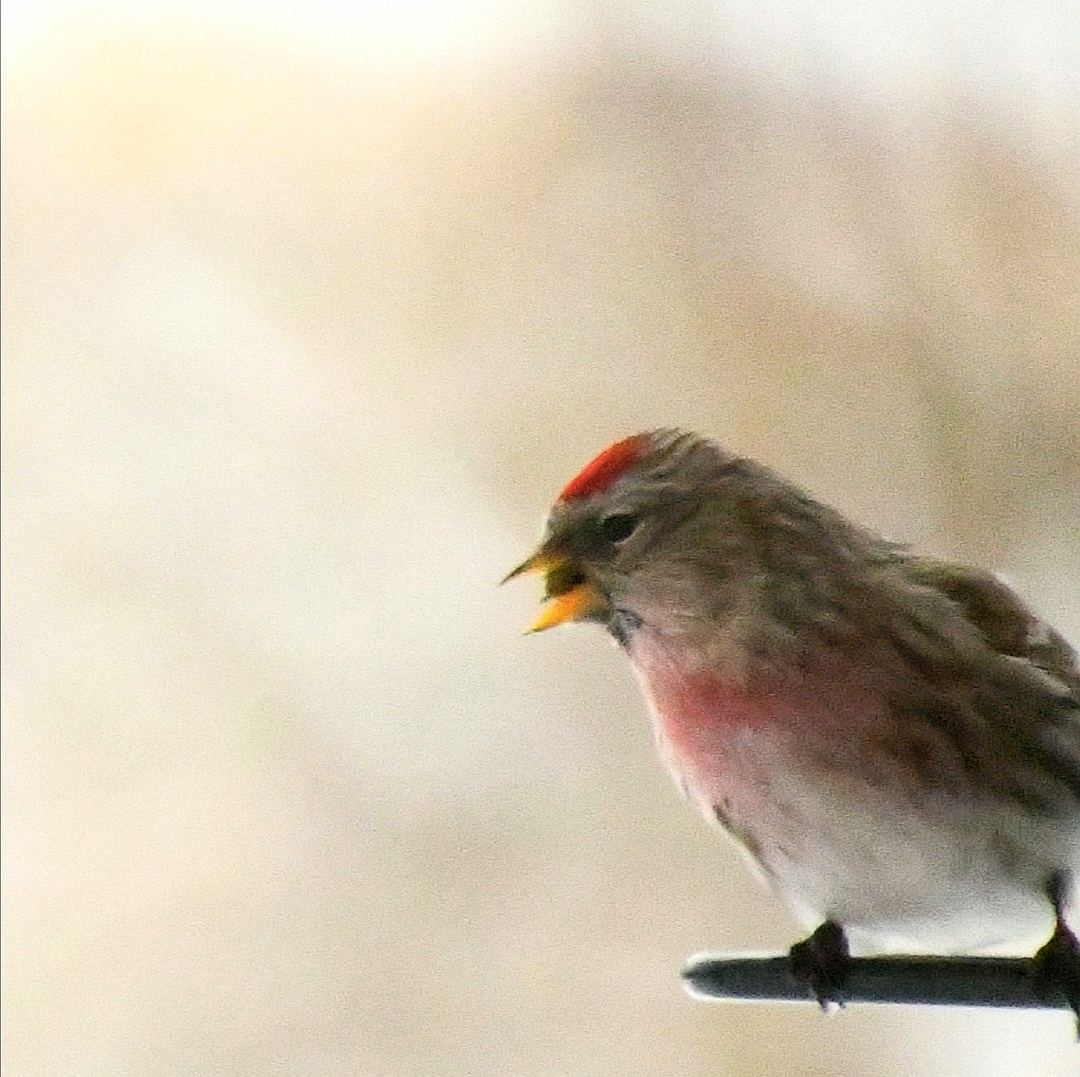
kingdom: Animalia
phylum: Chordata
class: Aves
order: Passeriformes
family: Fringillidae
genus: Acanthis
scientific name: Acanthis flammea
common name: Common redpoll
